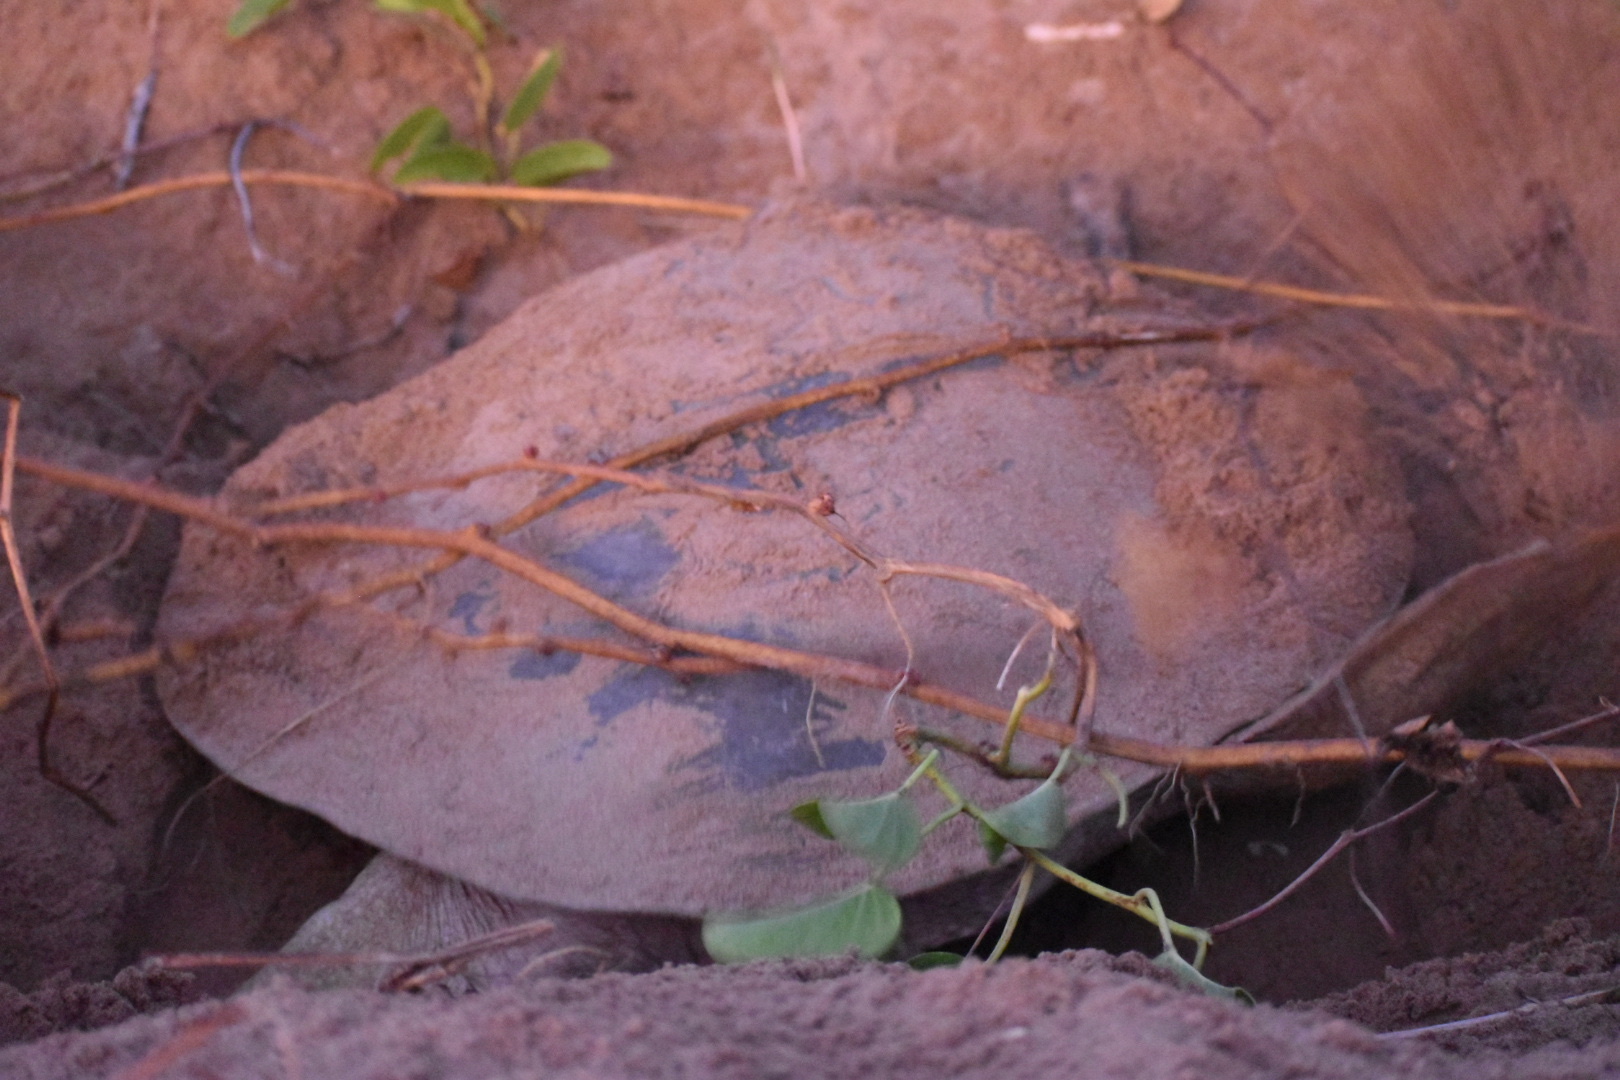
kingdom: Animalia
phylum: Chordata
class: Testudines
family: Cheloniidae
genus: Natator
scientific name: Natator depressus
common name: Flatback turtle
